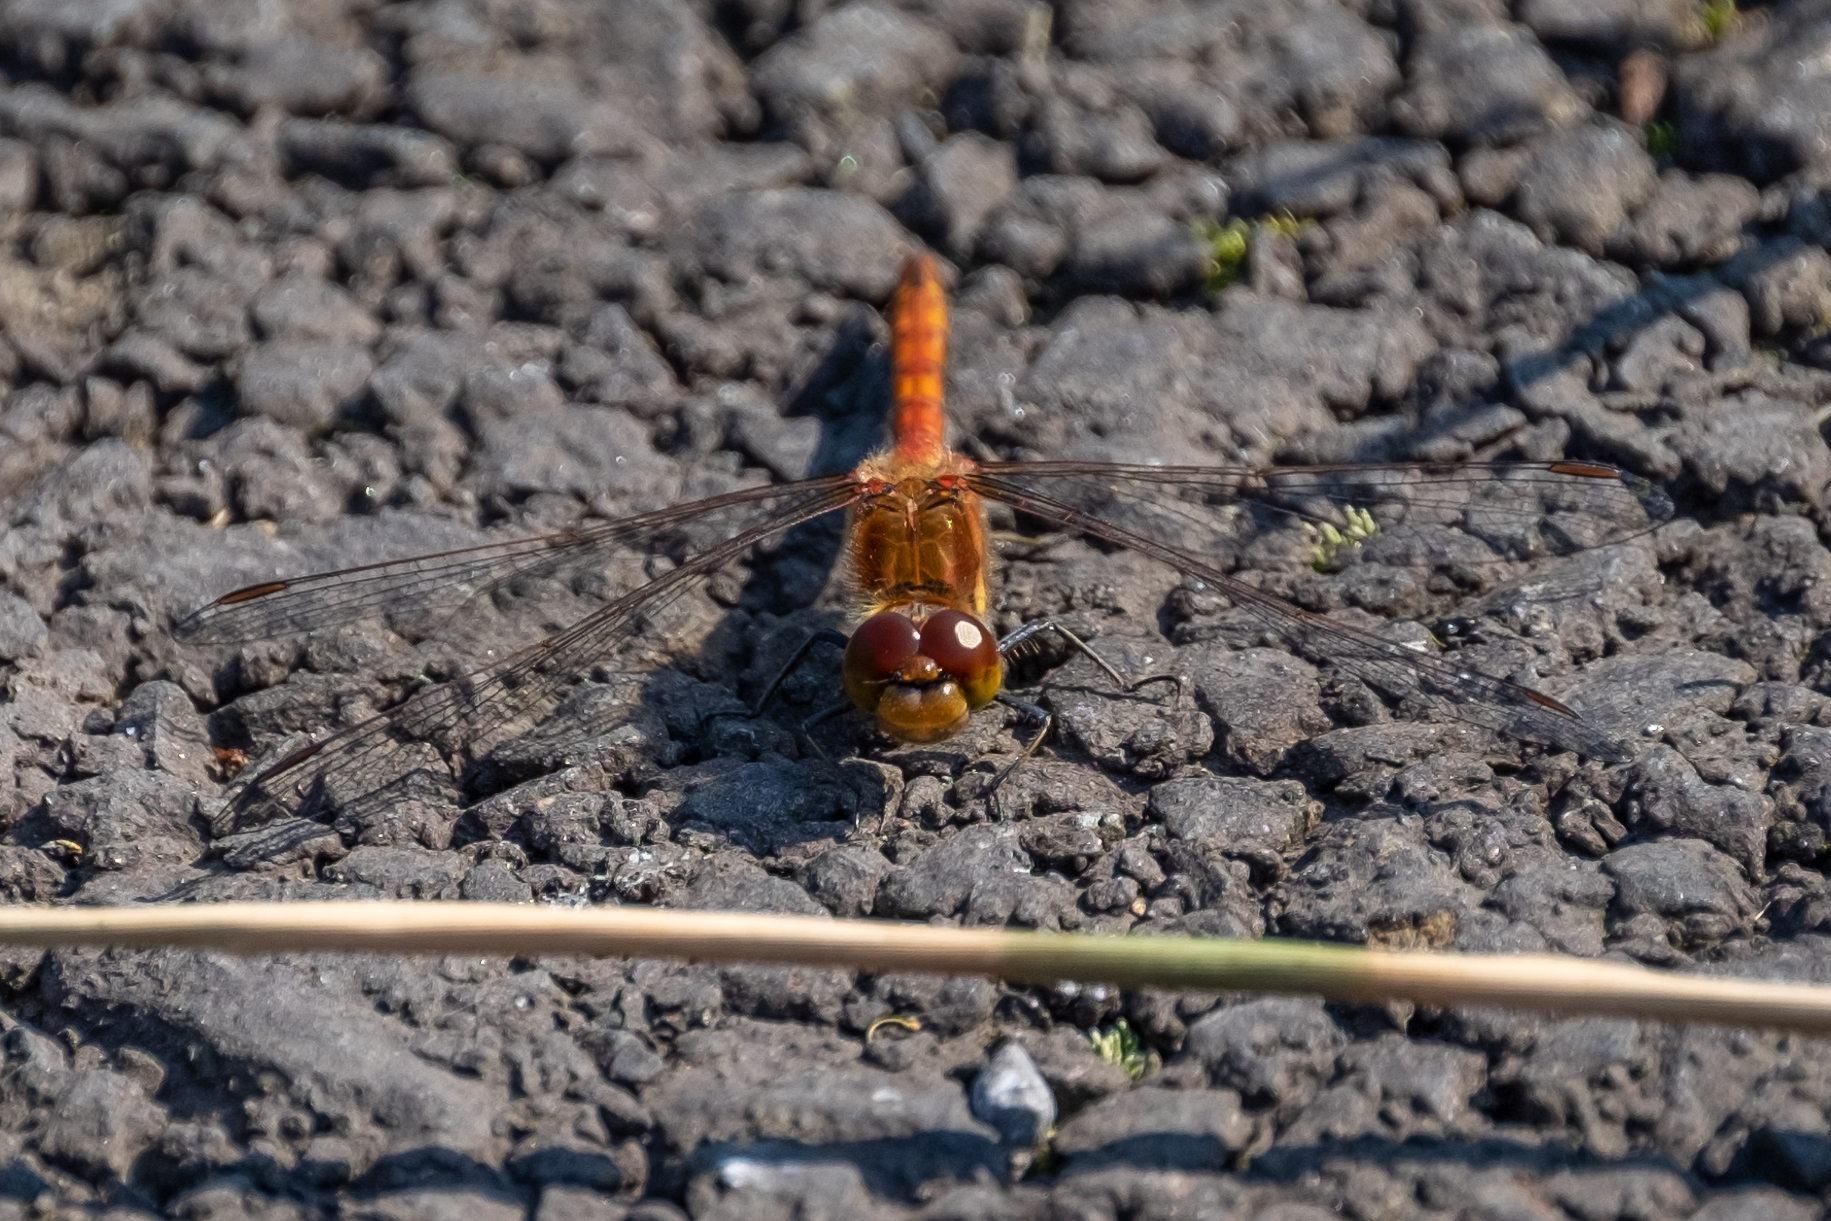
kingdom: Animalia
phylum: Arthropoda
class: Insecta
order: Odonata
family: Libellulidae
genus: Sympetrum
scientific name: Sympetrum striolatum
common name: Common darter
